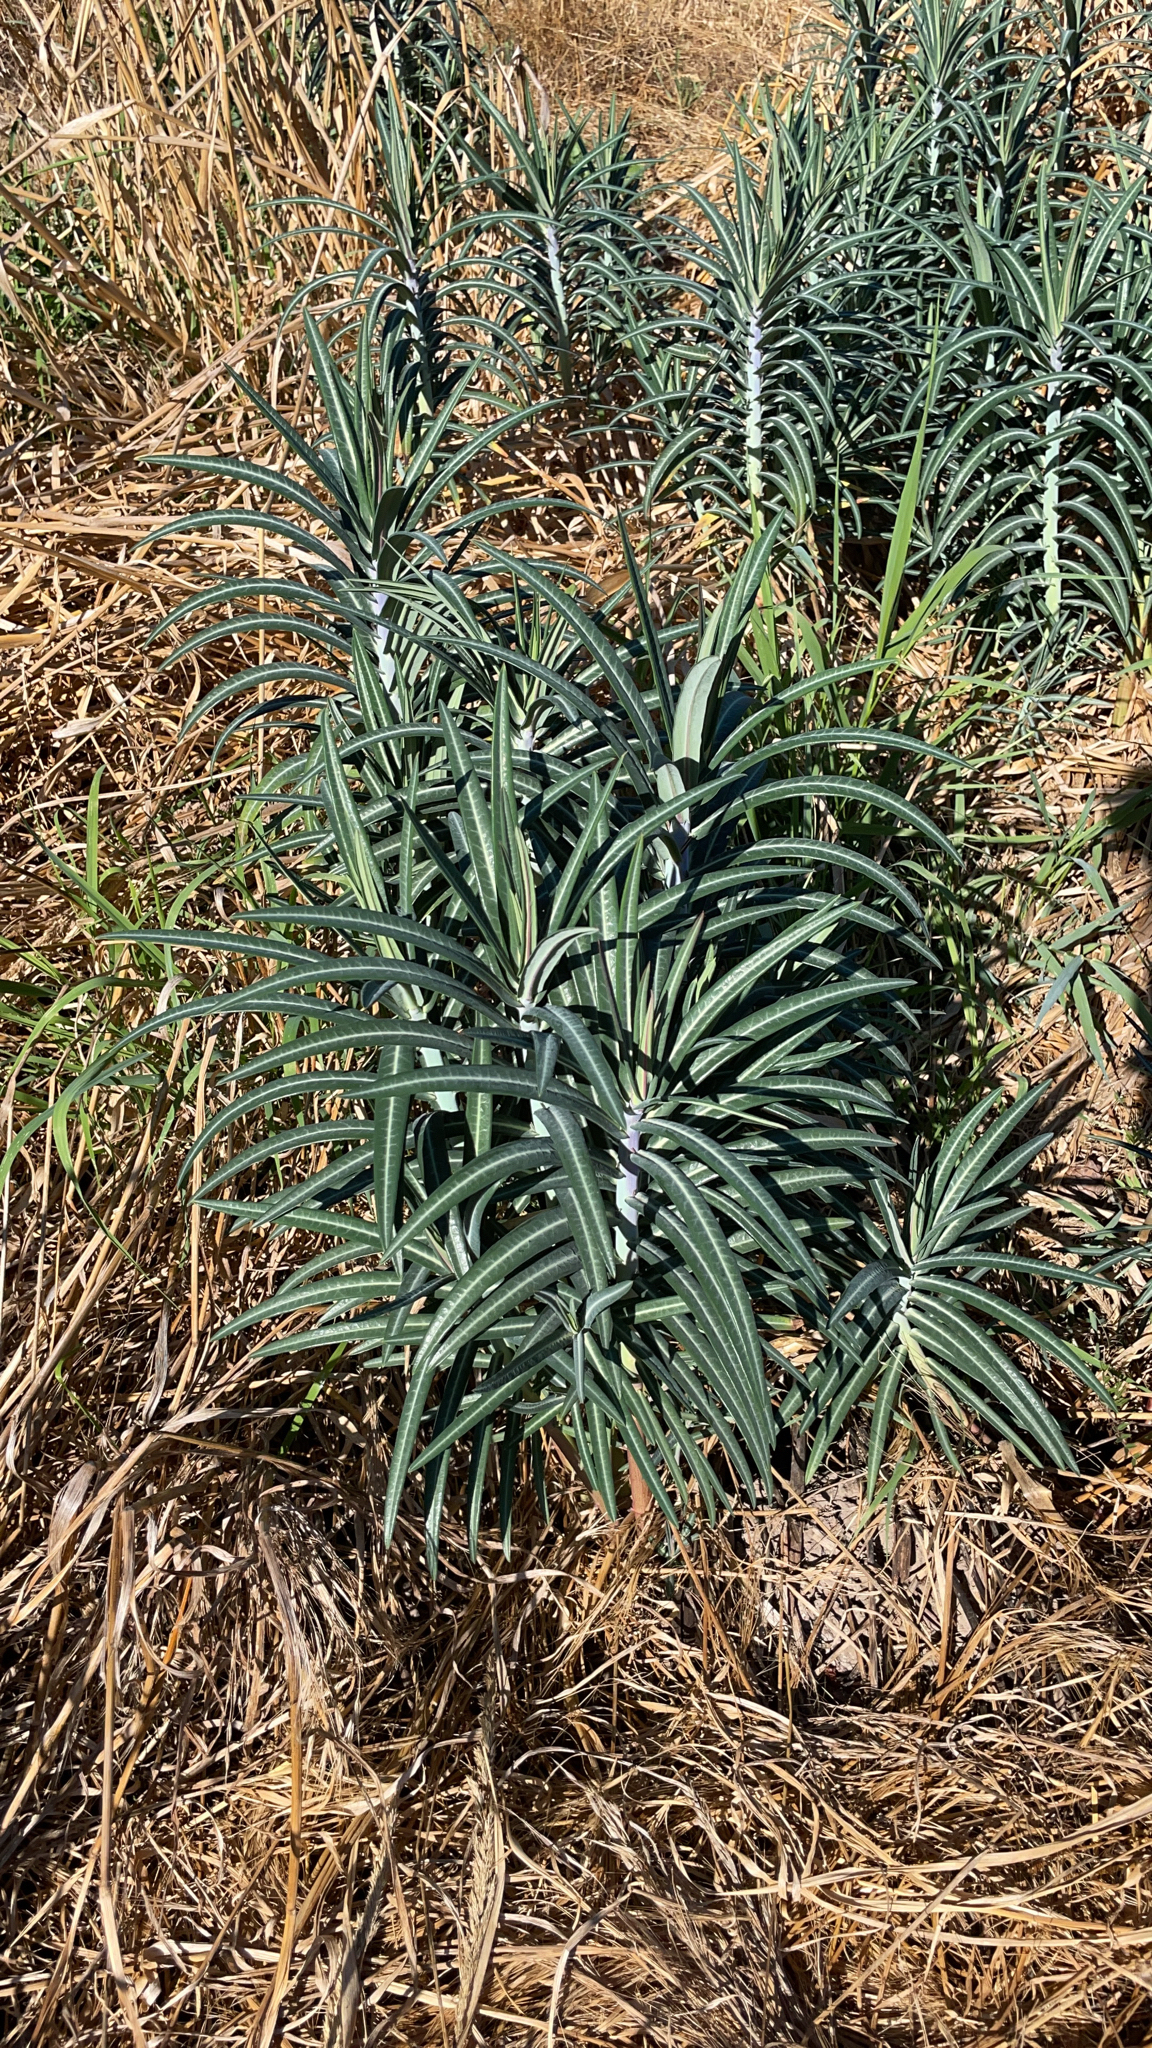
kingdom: Plantae
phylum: Tracheophyta
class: Magnoliopsida
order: Malpighiales
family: Euphorbiaceae
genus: Euphorbia
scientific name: Euphorbia lathyris
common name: Caper spurge
